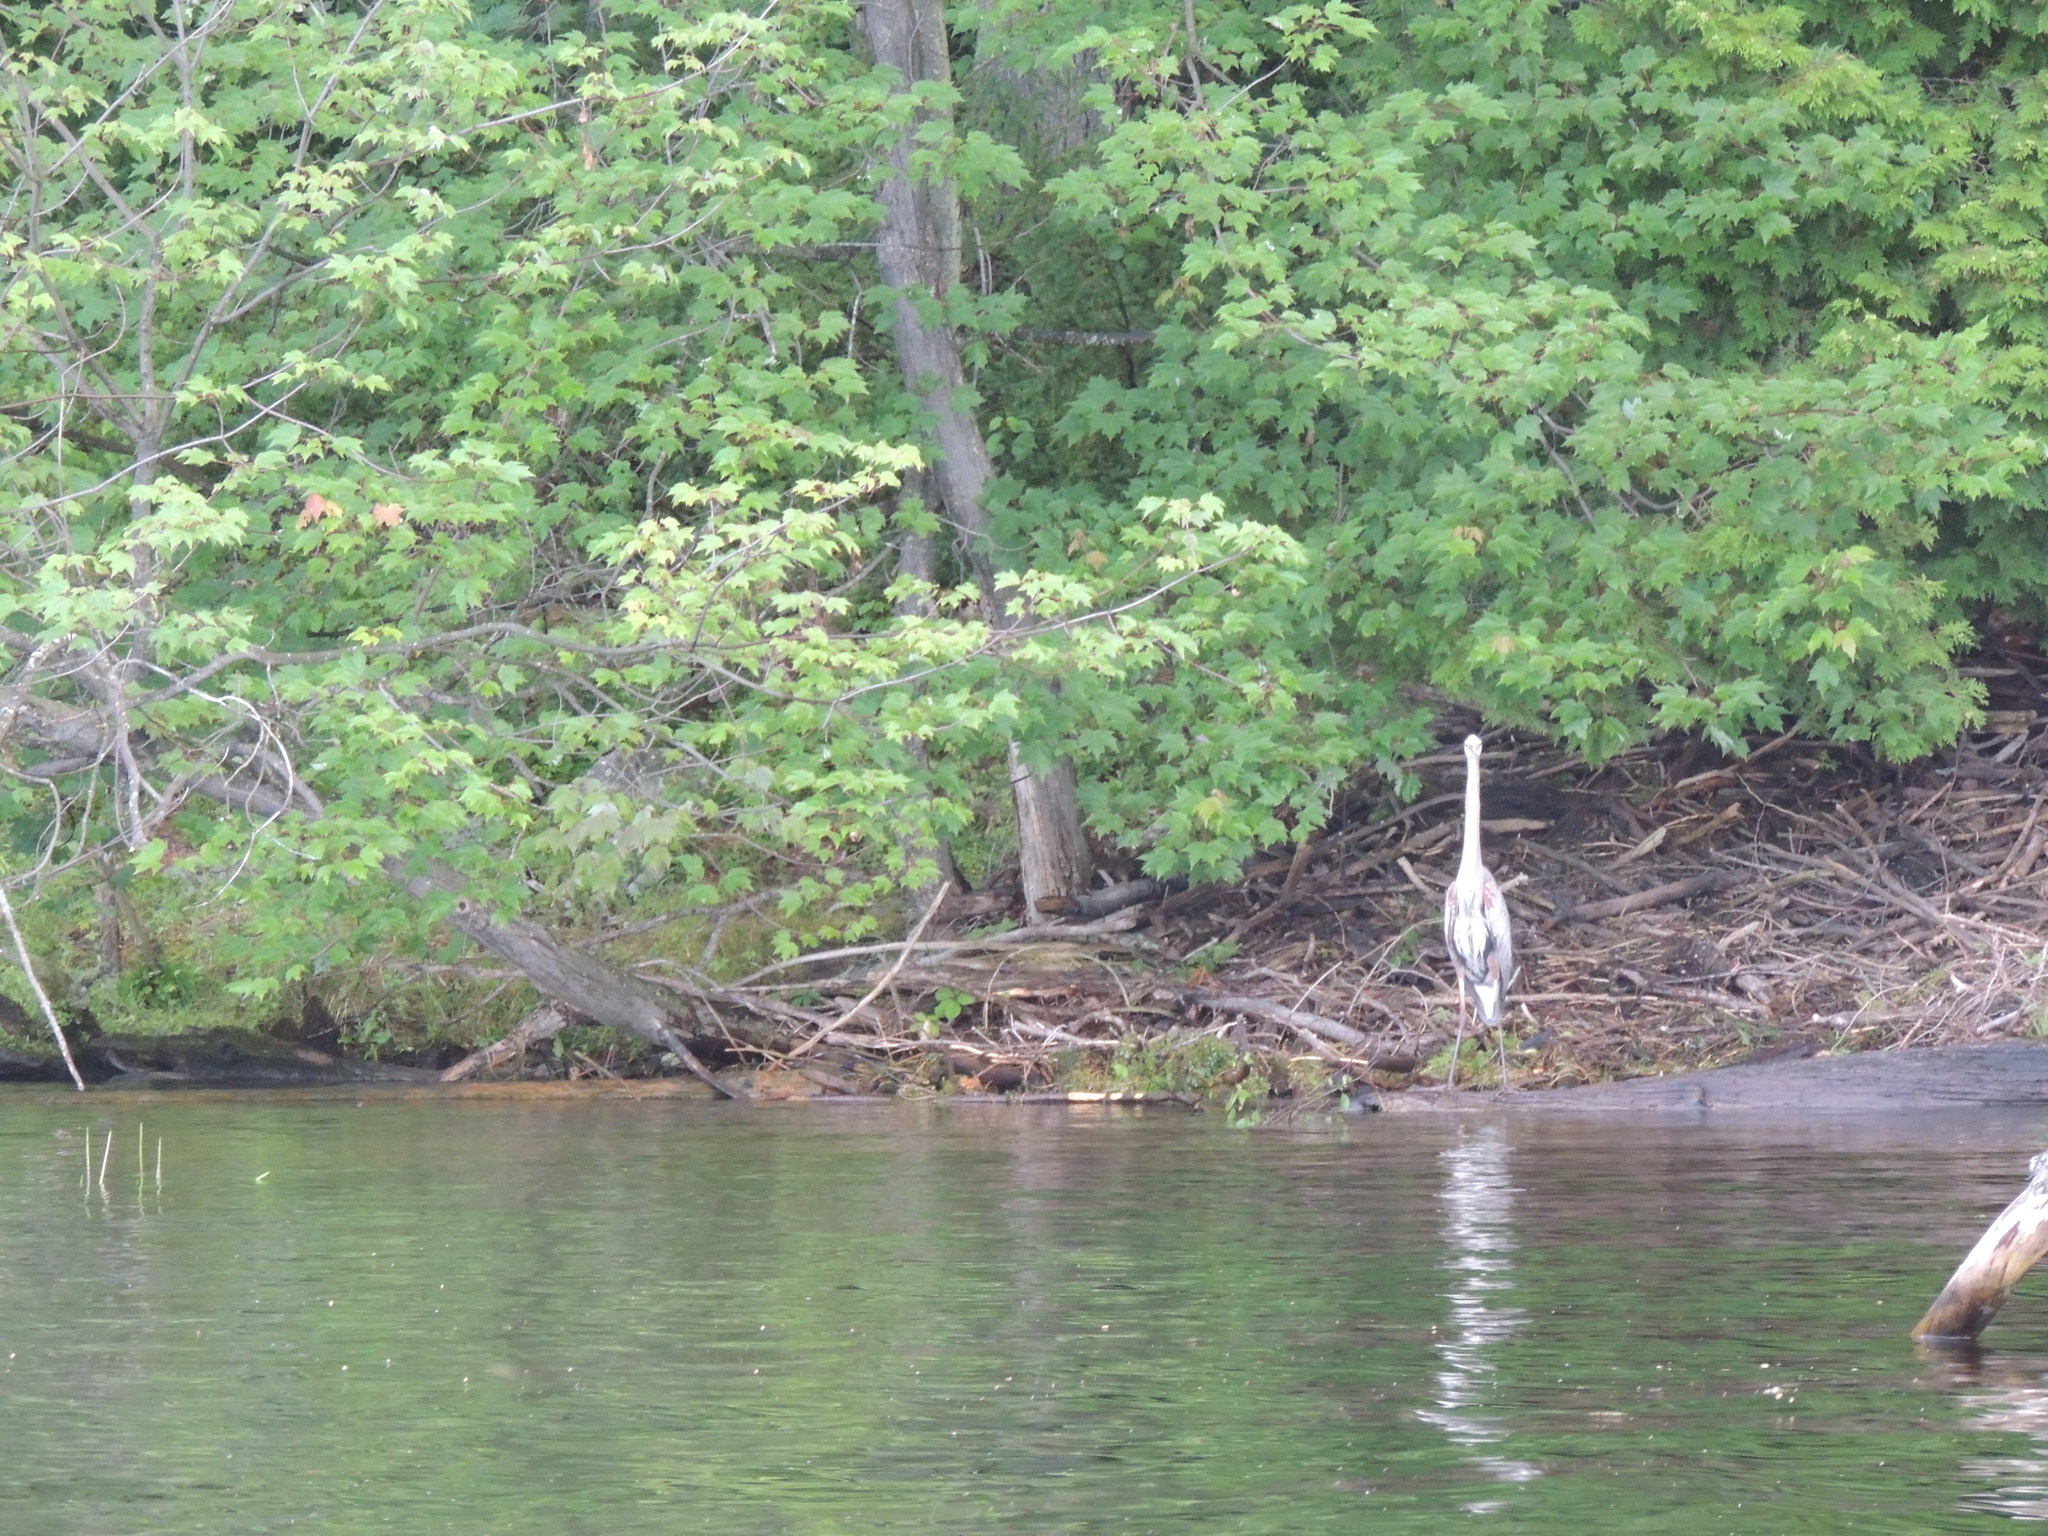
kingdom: Animalia
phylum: Chordata
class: Aves
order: Pelecaniformes
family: Ardeidae
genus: Ardea
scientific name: Ardea herodias
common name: Great blue heron
